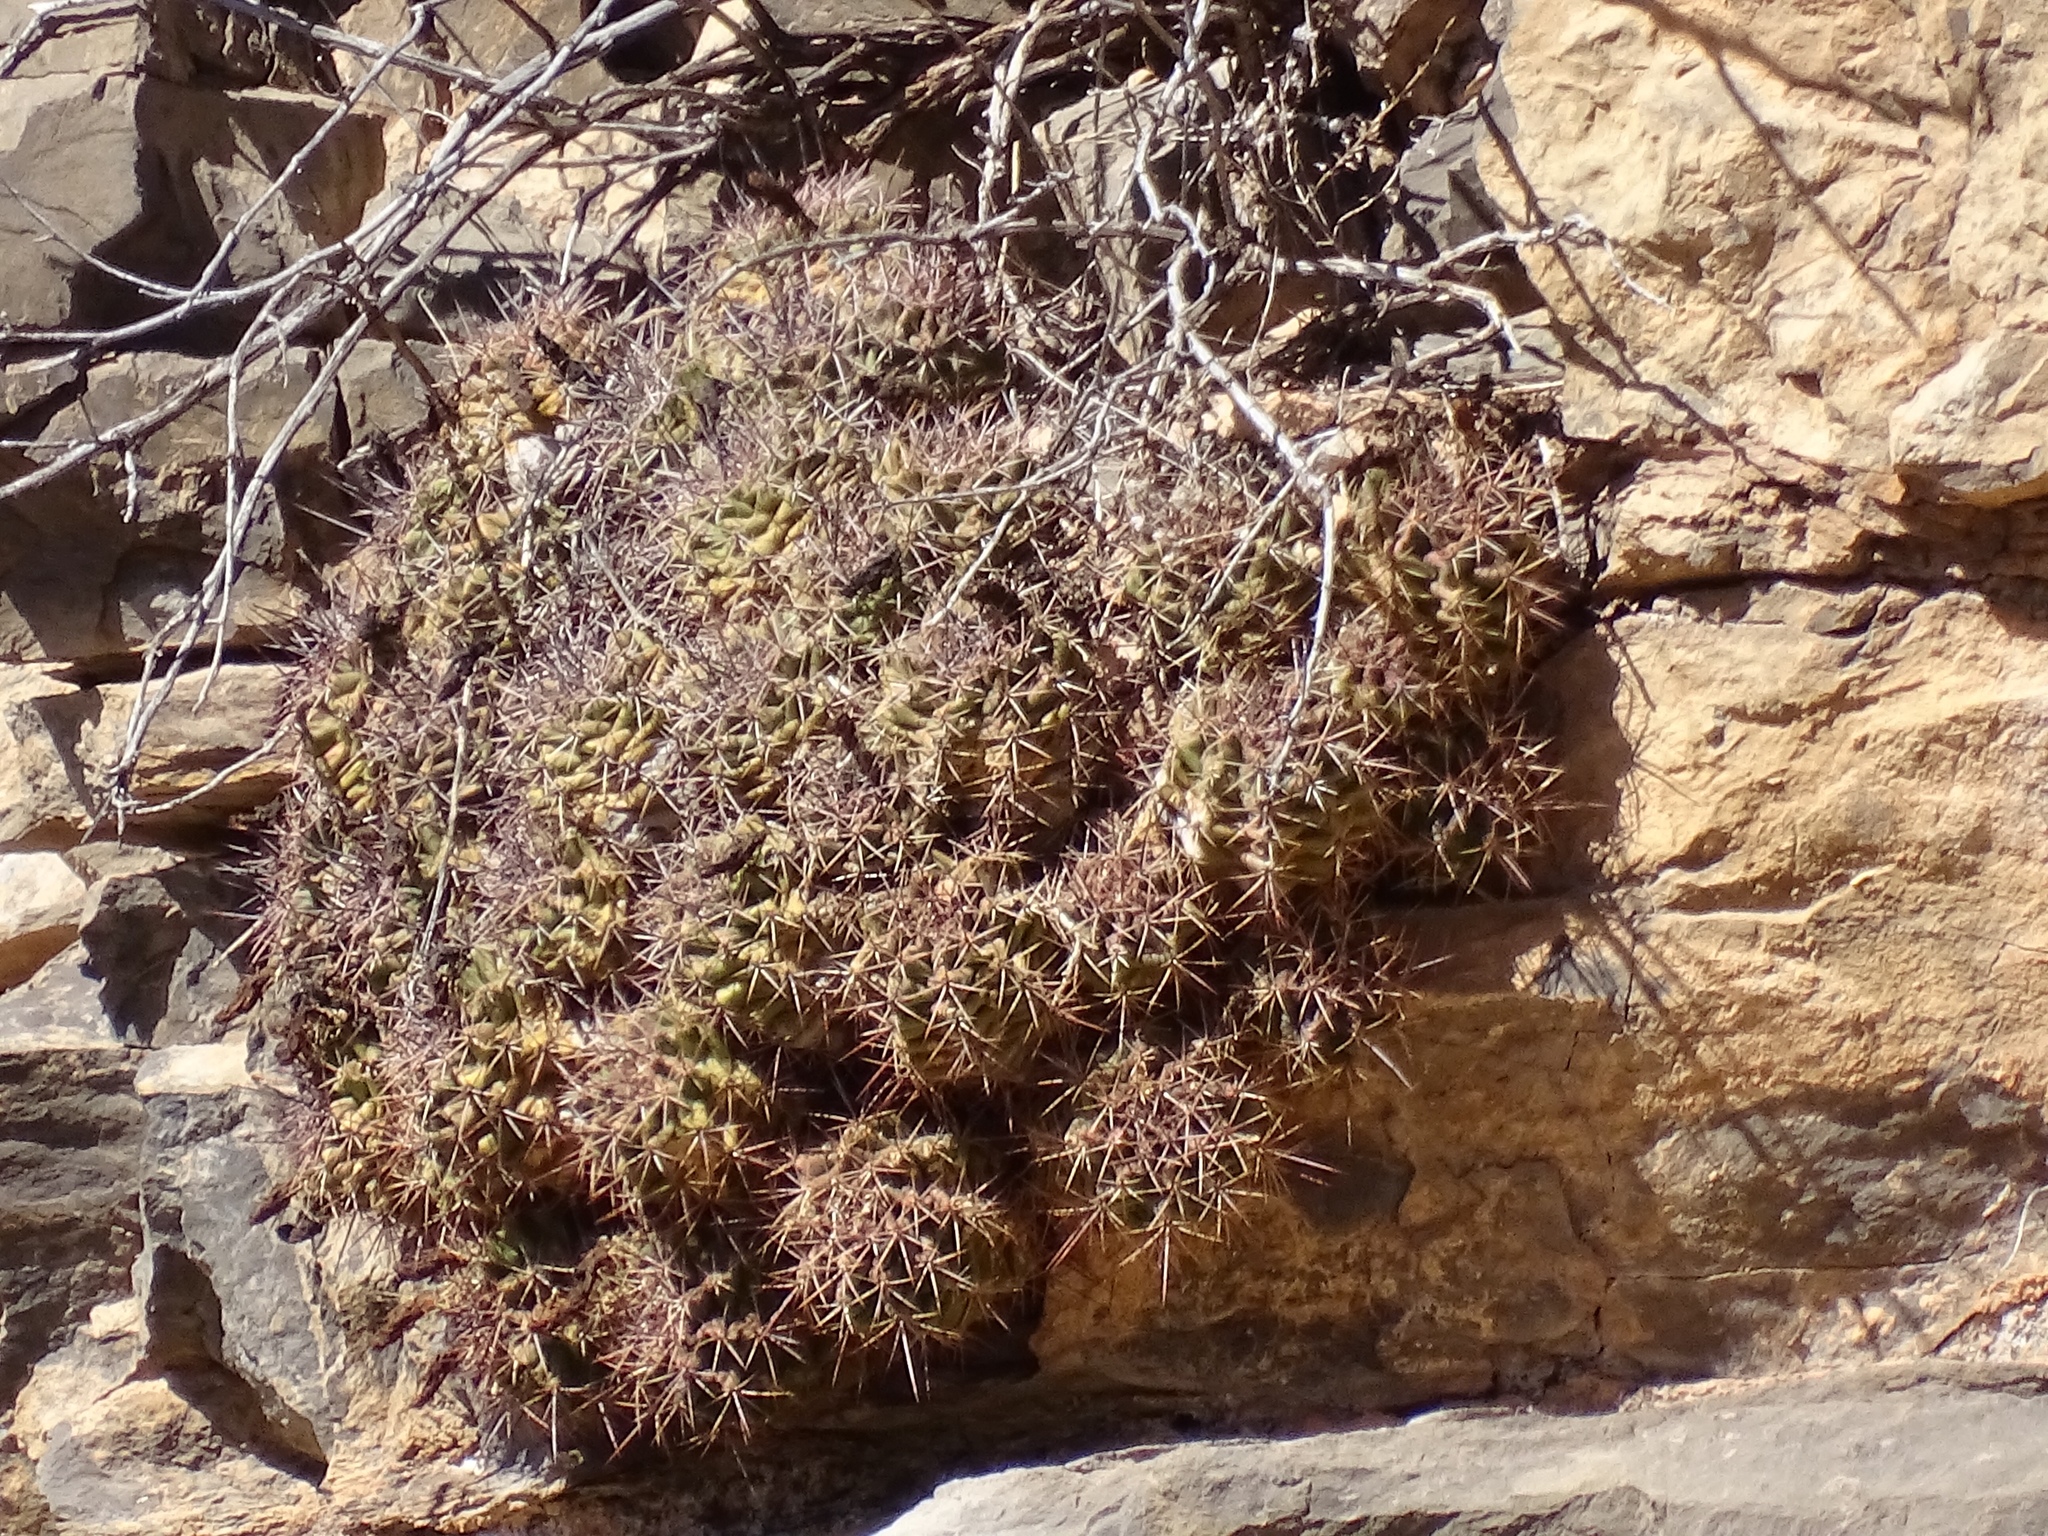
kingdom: Plantae
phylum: Tracheophyta
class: Magnoliopsida
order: Caryophyllales
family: Cactaceae
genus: Echinocereus
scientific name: Echinocereus coccineus
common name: Scarlet hedgehog cactus
